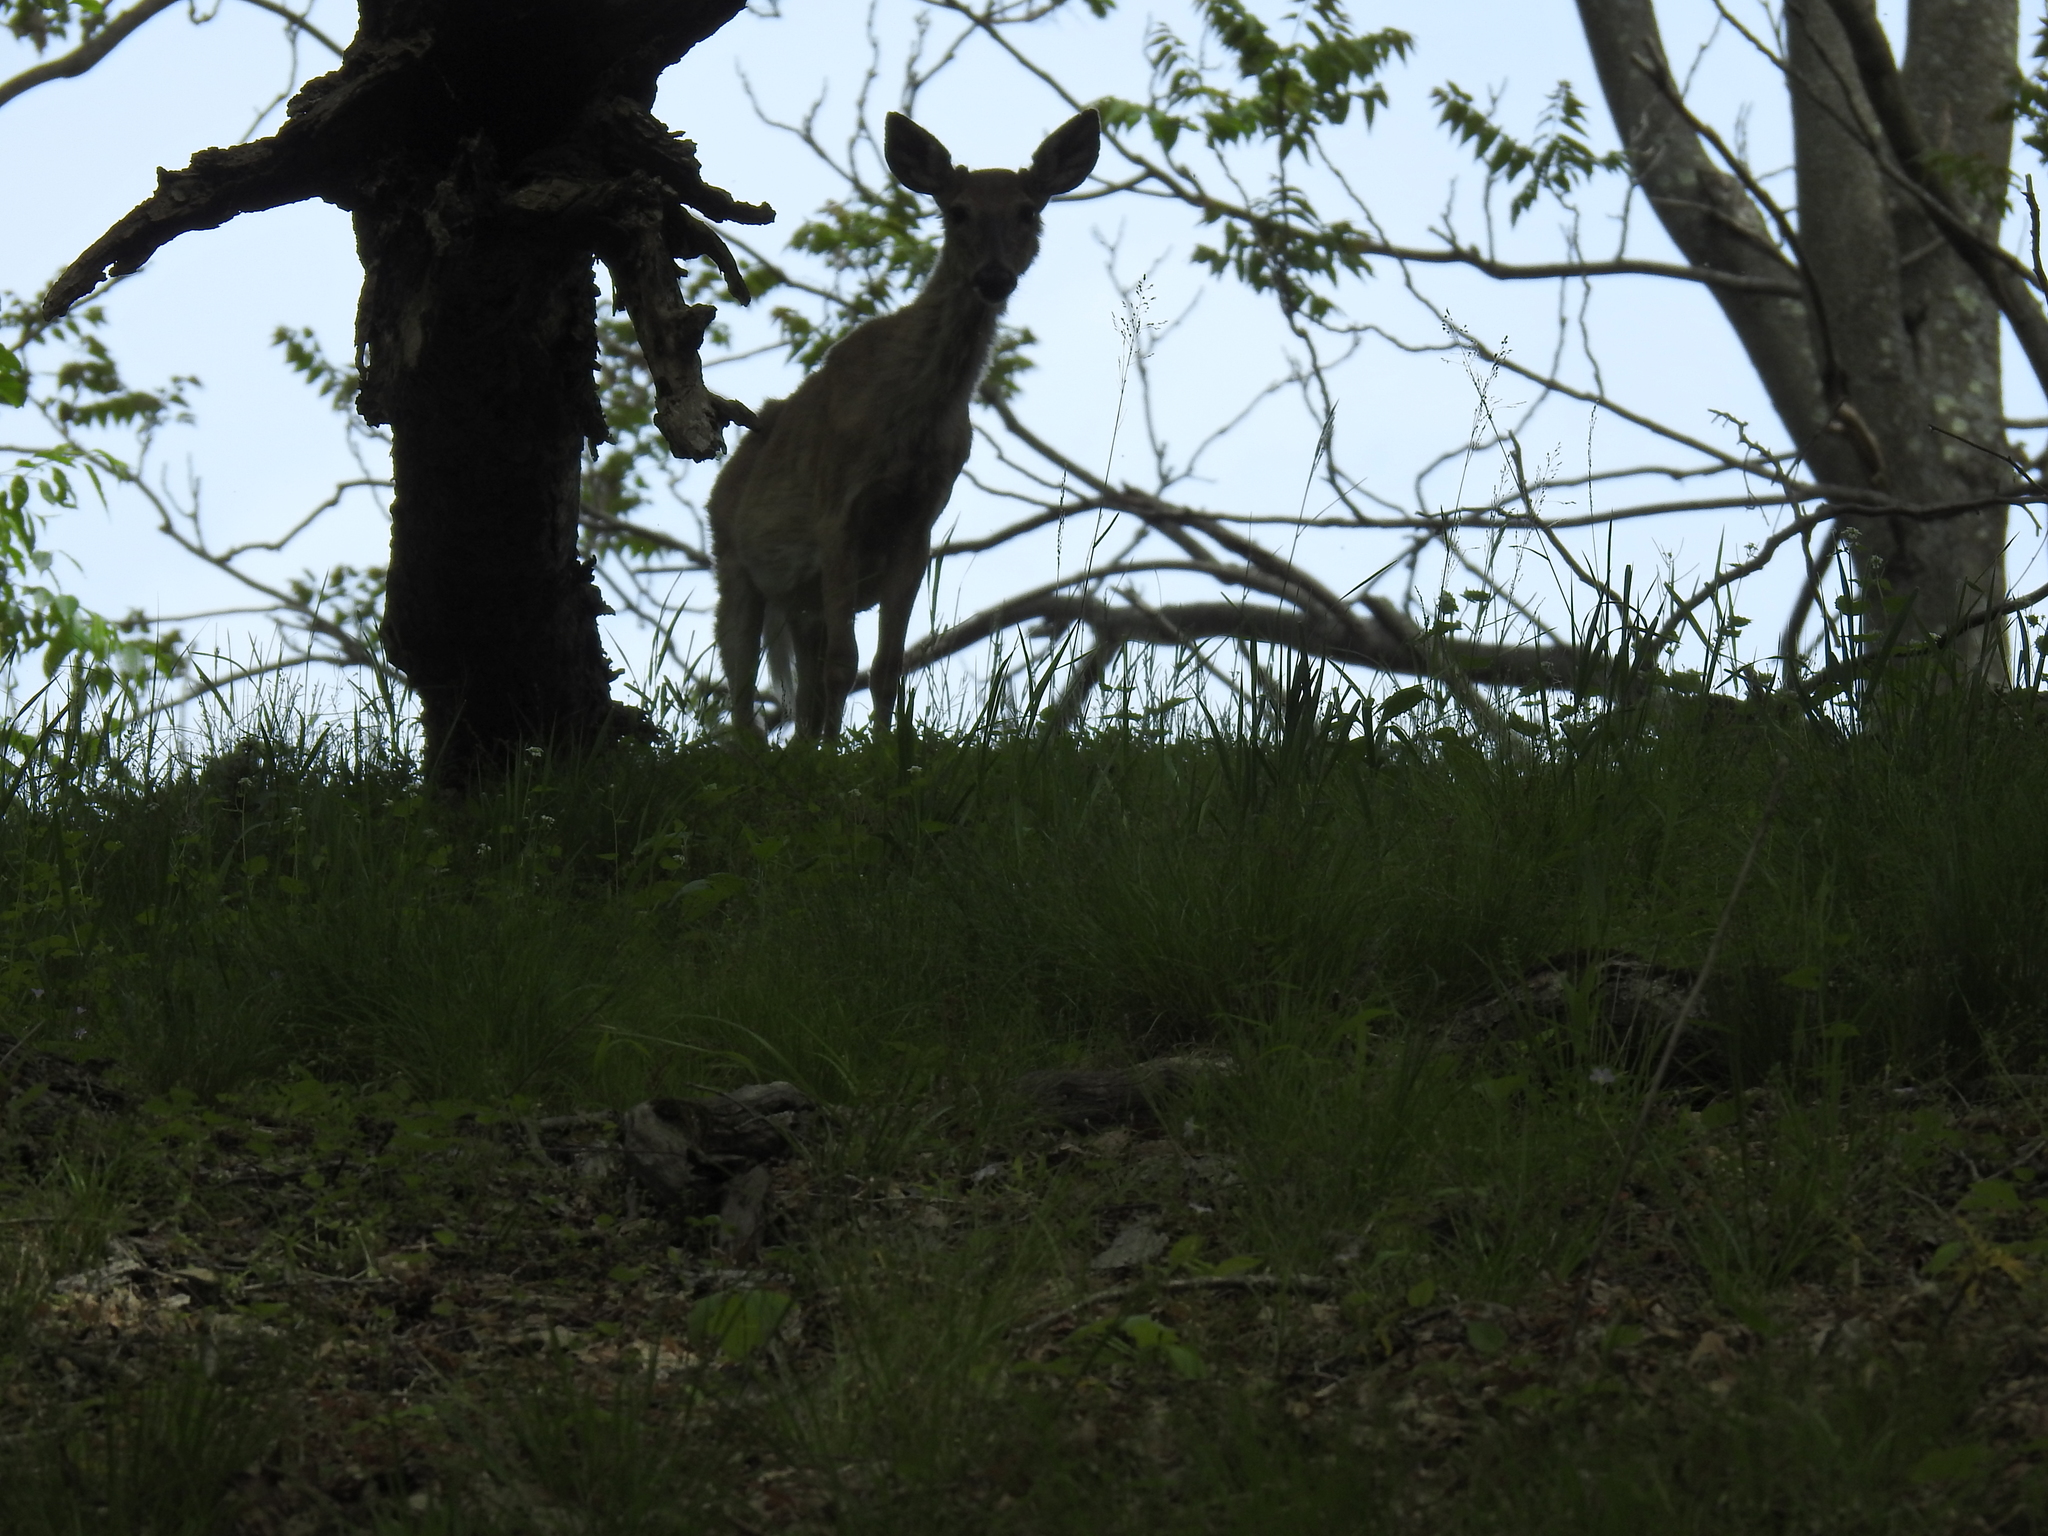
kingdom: Animalia
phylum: Chordata
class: Mammalia
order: Artiodactyla
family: Cervidae
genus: Odocoileus
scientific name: Odocoileus virginianus
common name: White-tailed deer
